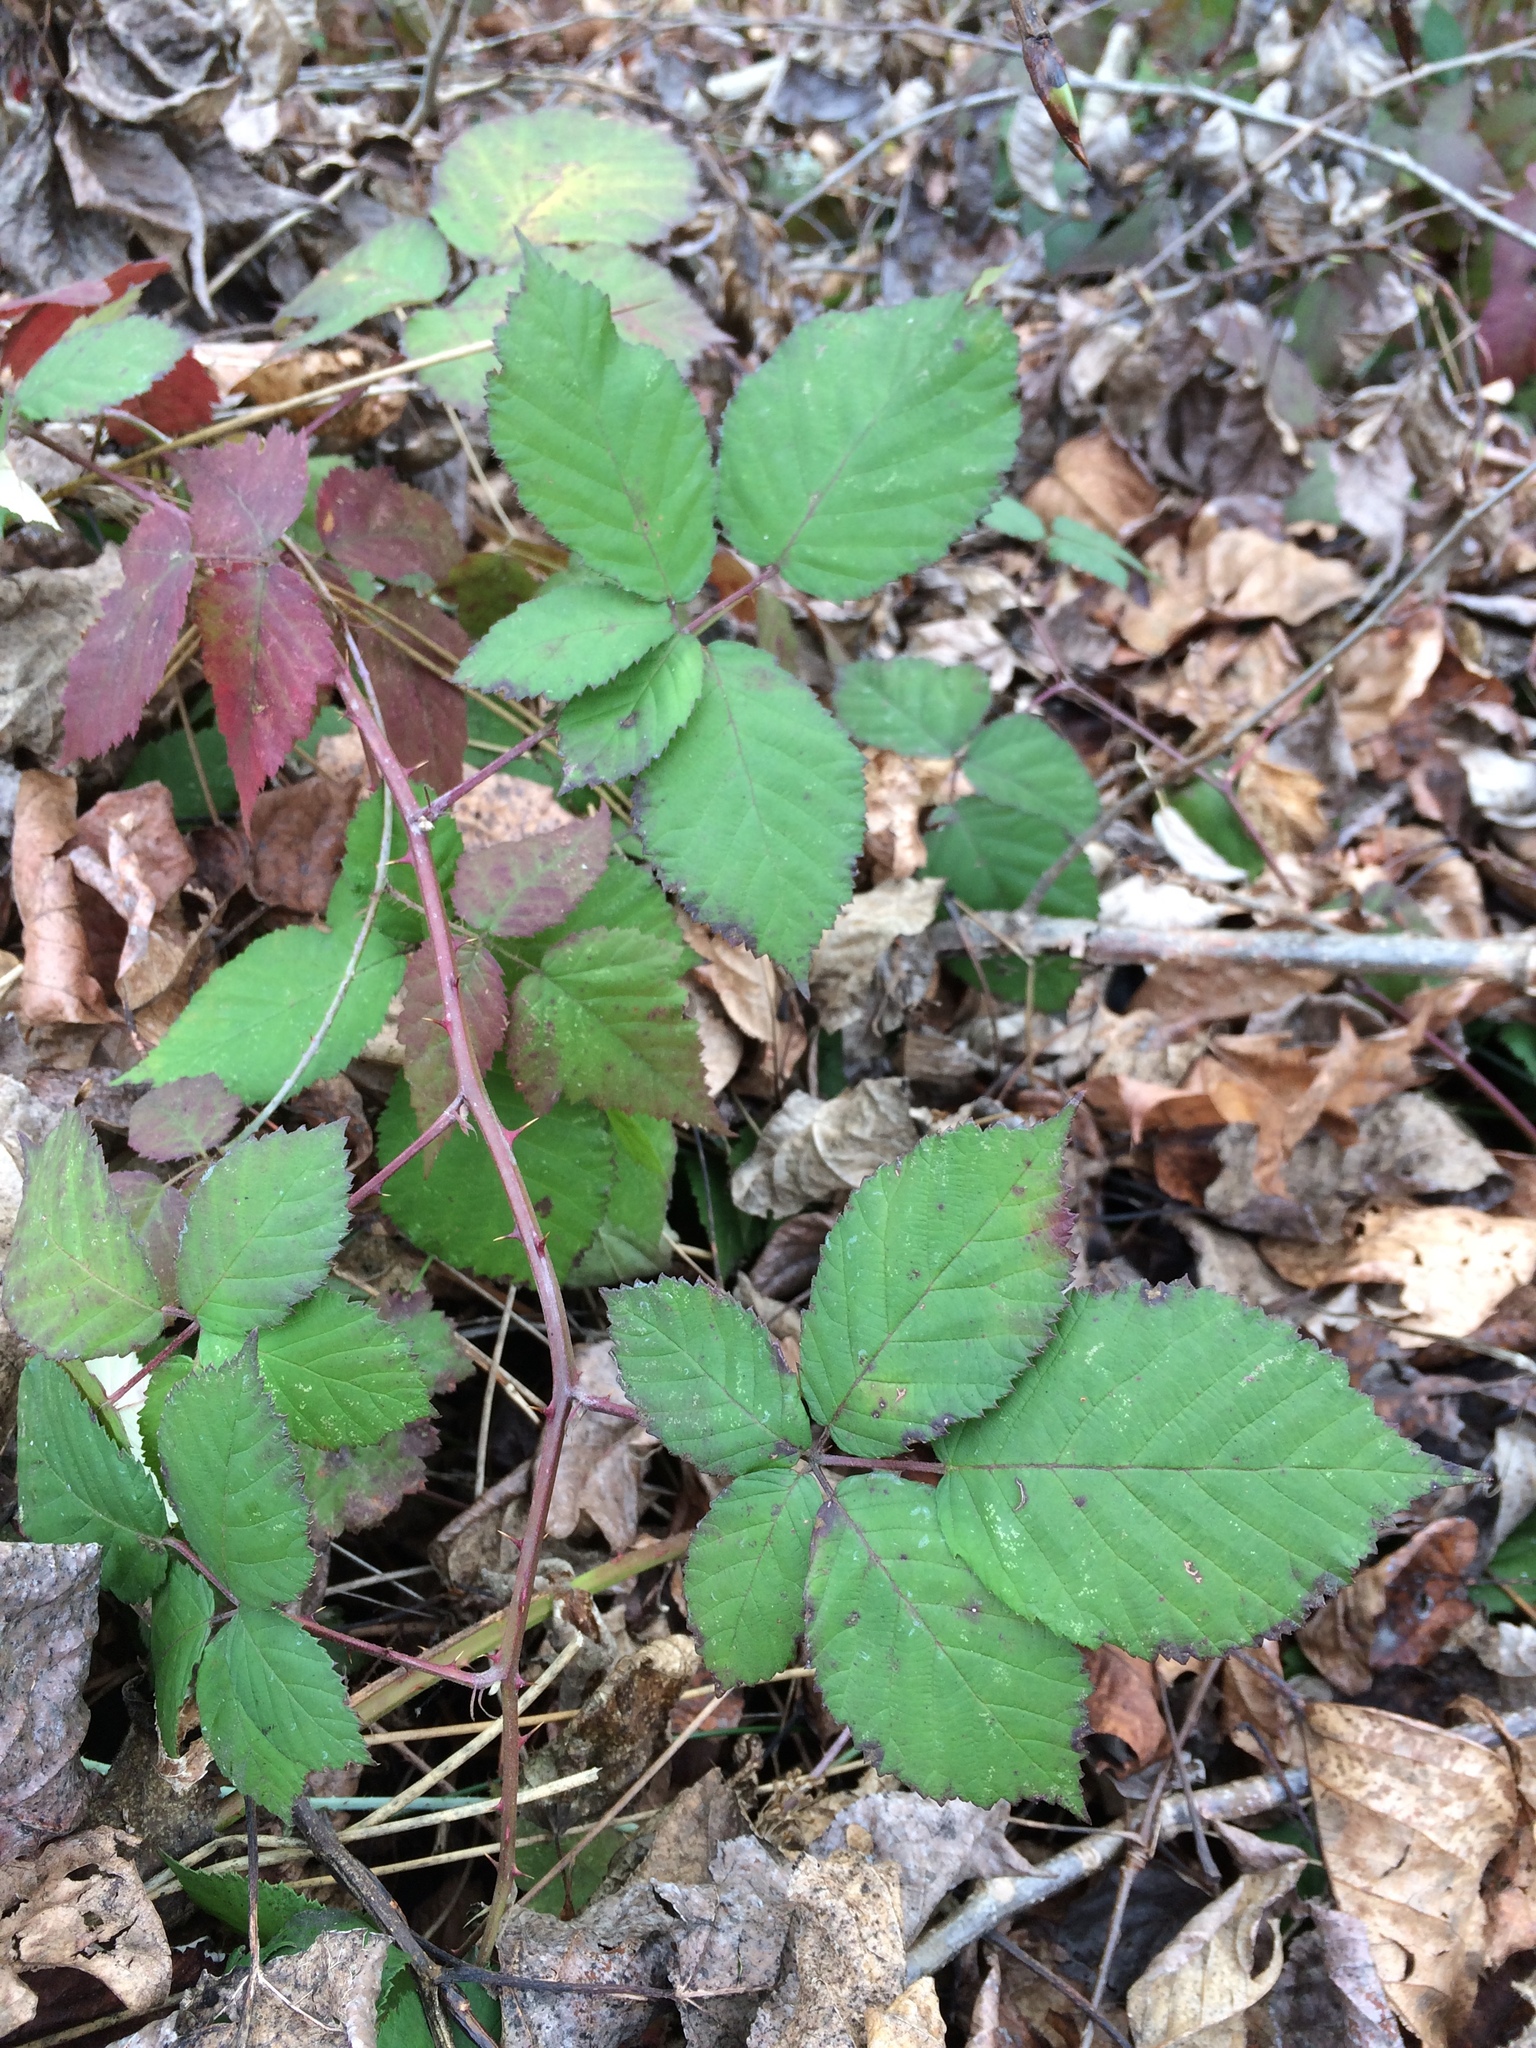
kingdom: Plantae
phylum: Tracheophyta
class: Magnoliopsida
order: Rosales
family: Rosaceae
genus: Rubus
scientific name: Rubus armeniacus
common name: Himalayan blackberry
